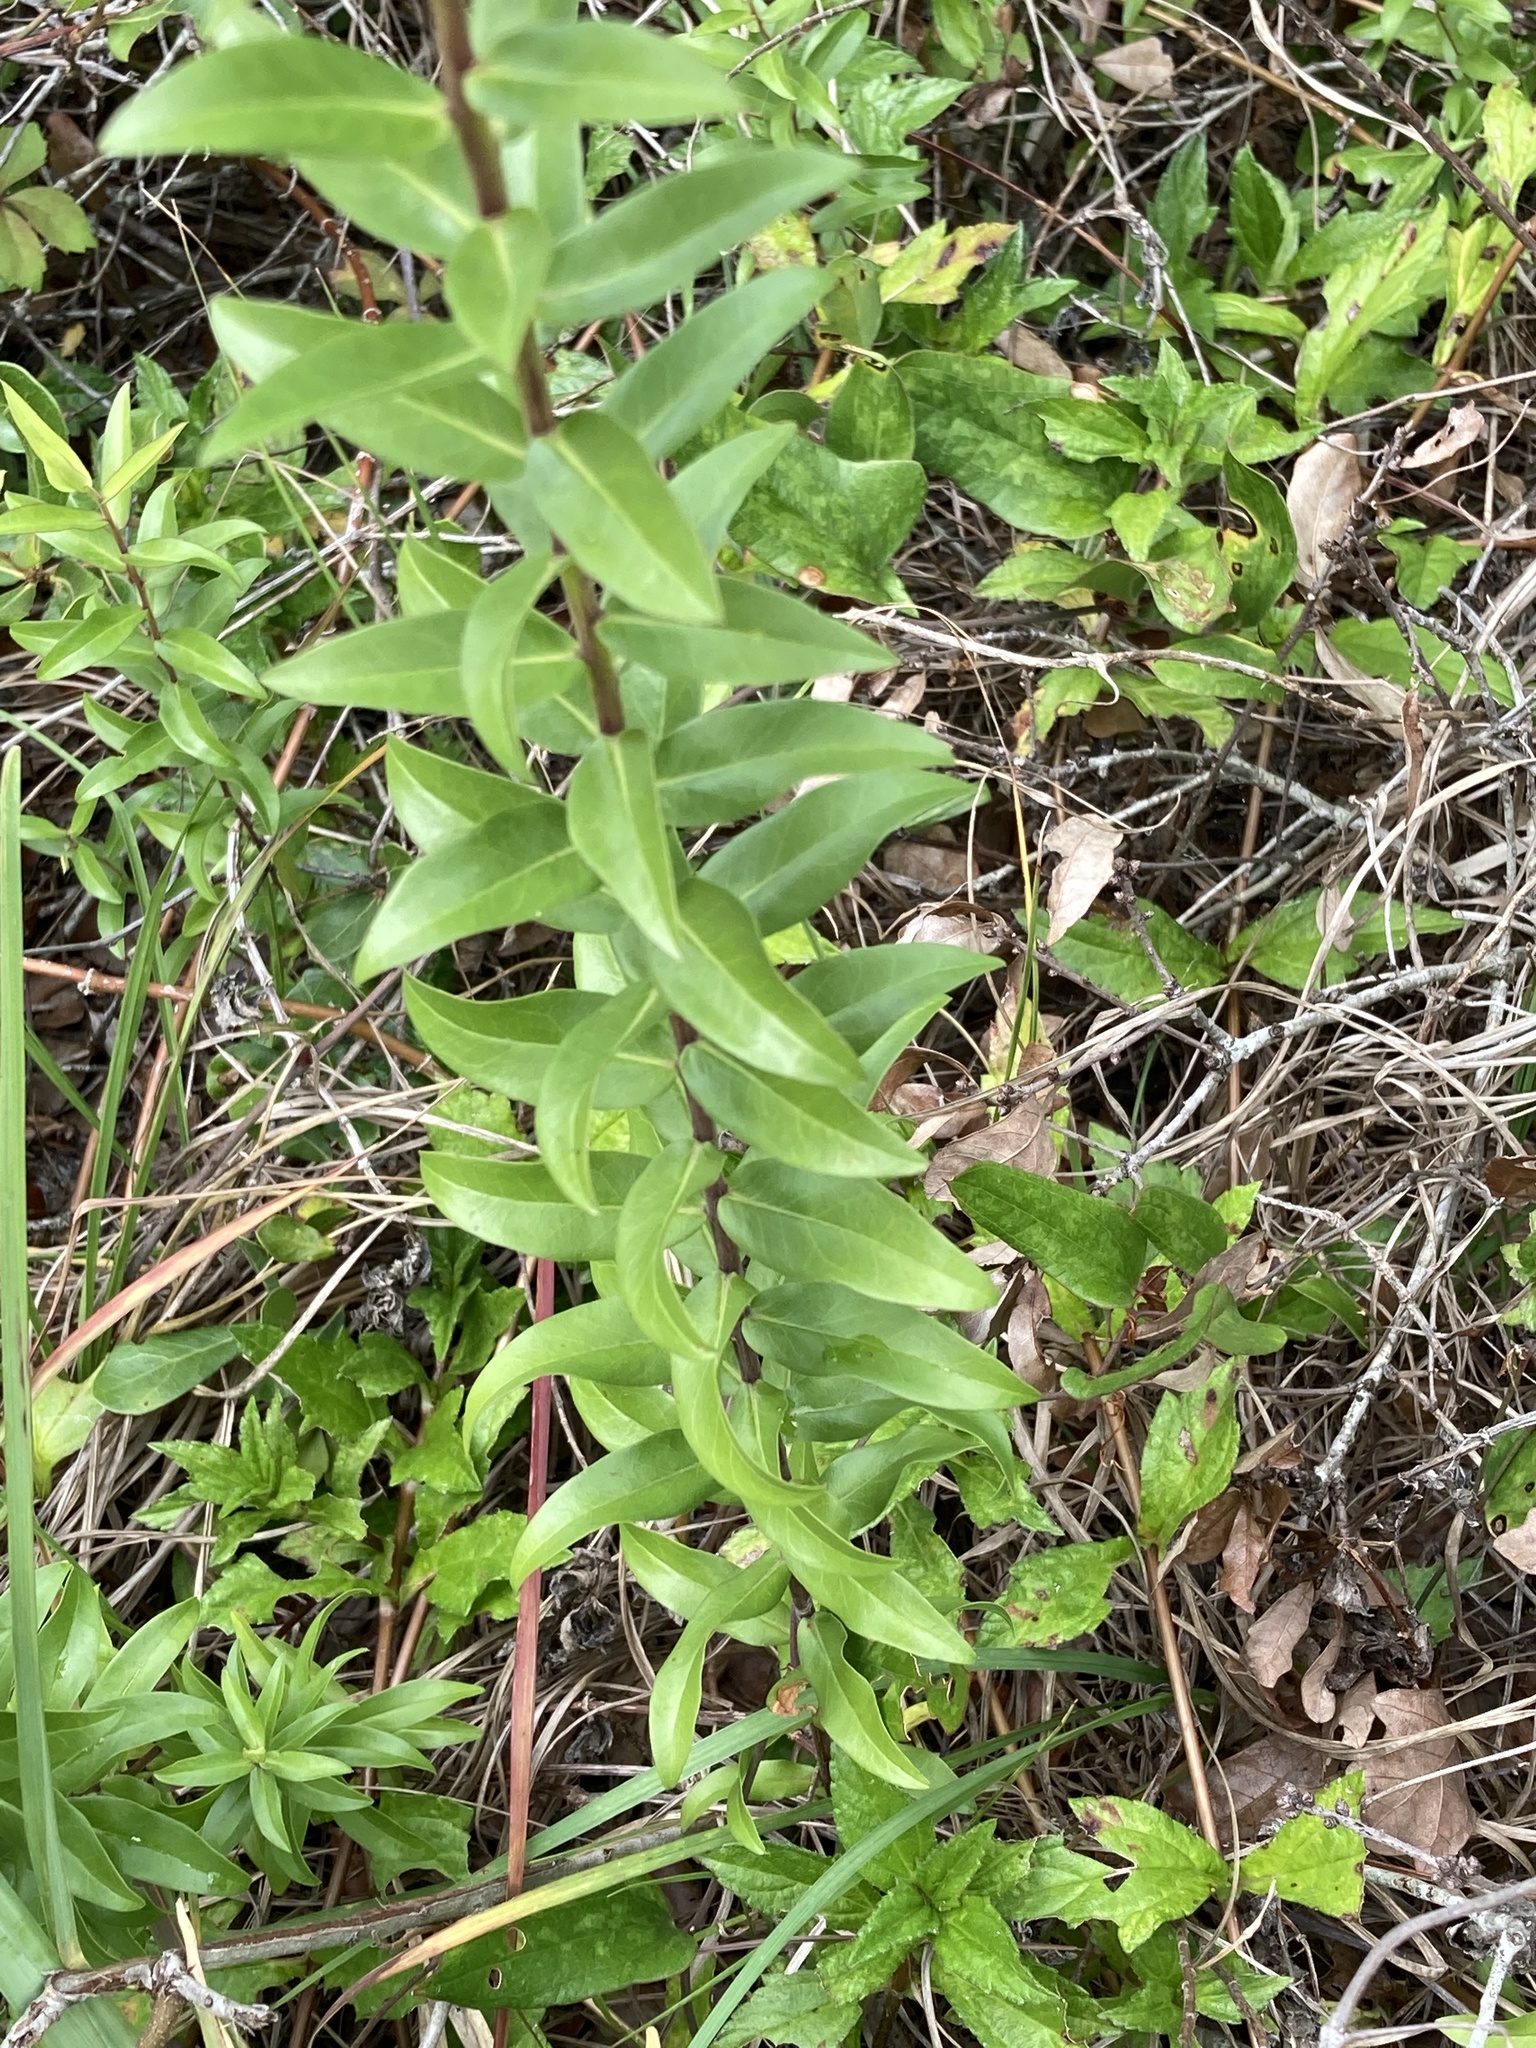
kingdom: Plantae
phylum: Tracheophyta
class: Magnoliopsida
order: Asterales
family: Asteraceae
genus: Solidago
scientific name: Solidago chapmanii
